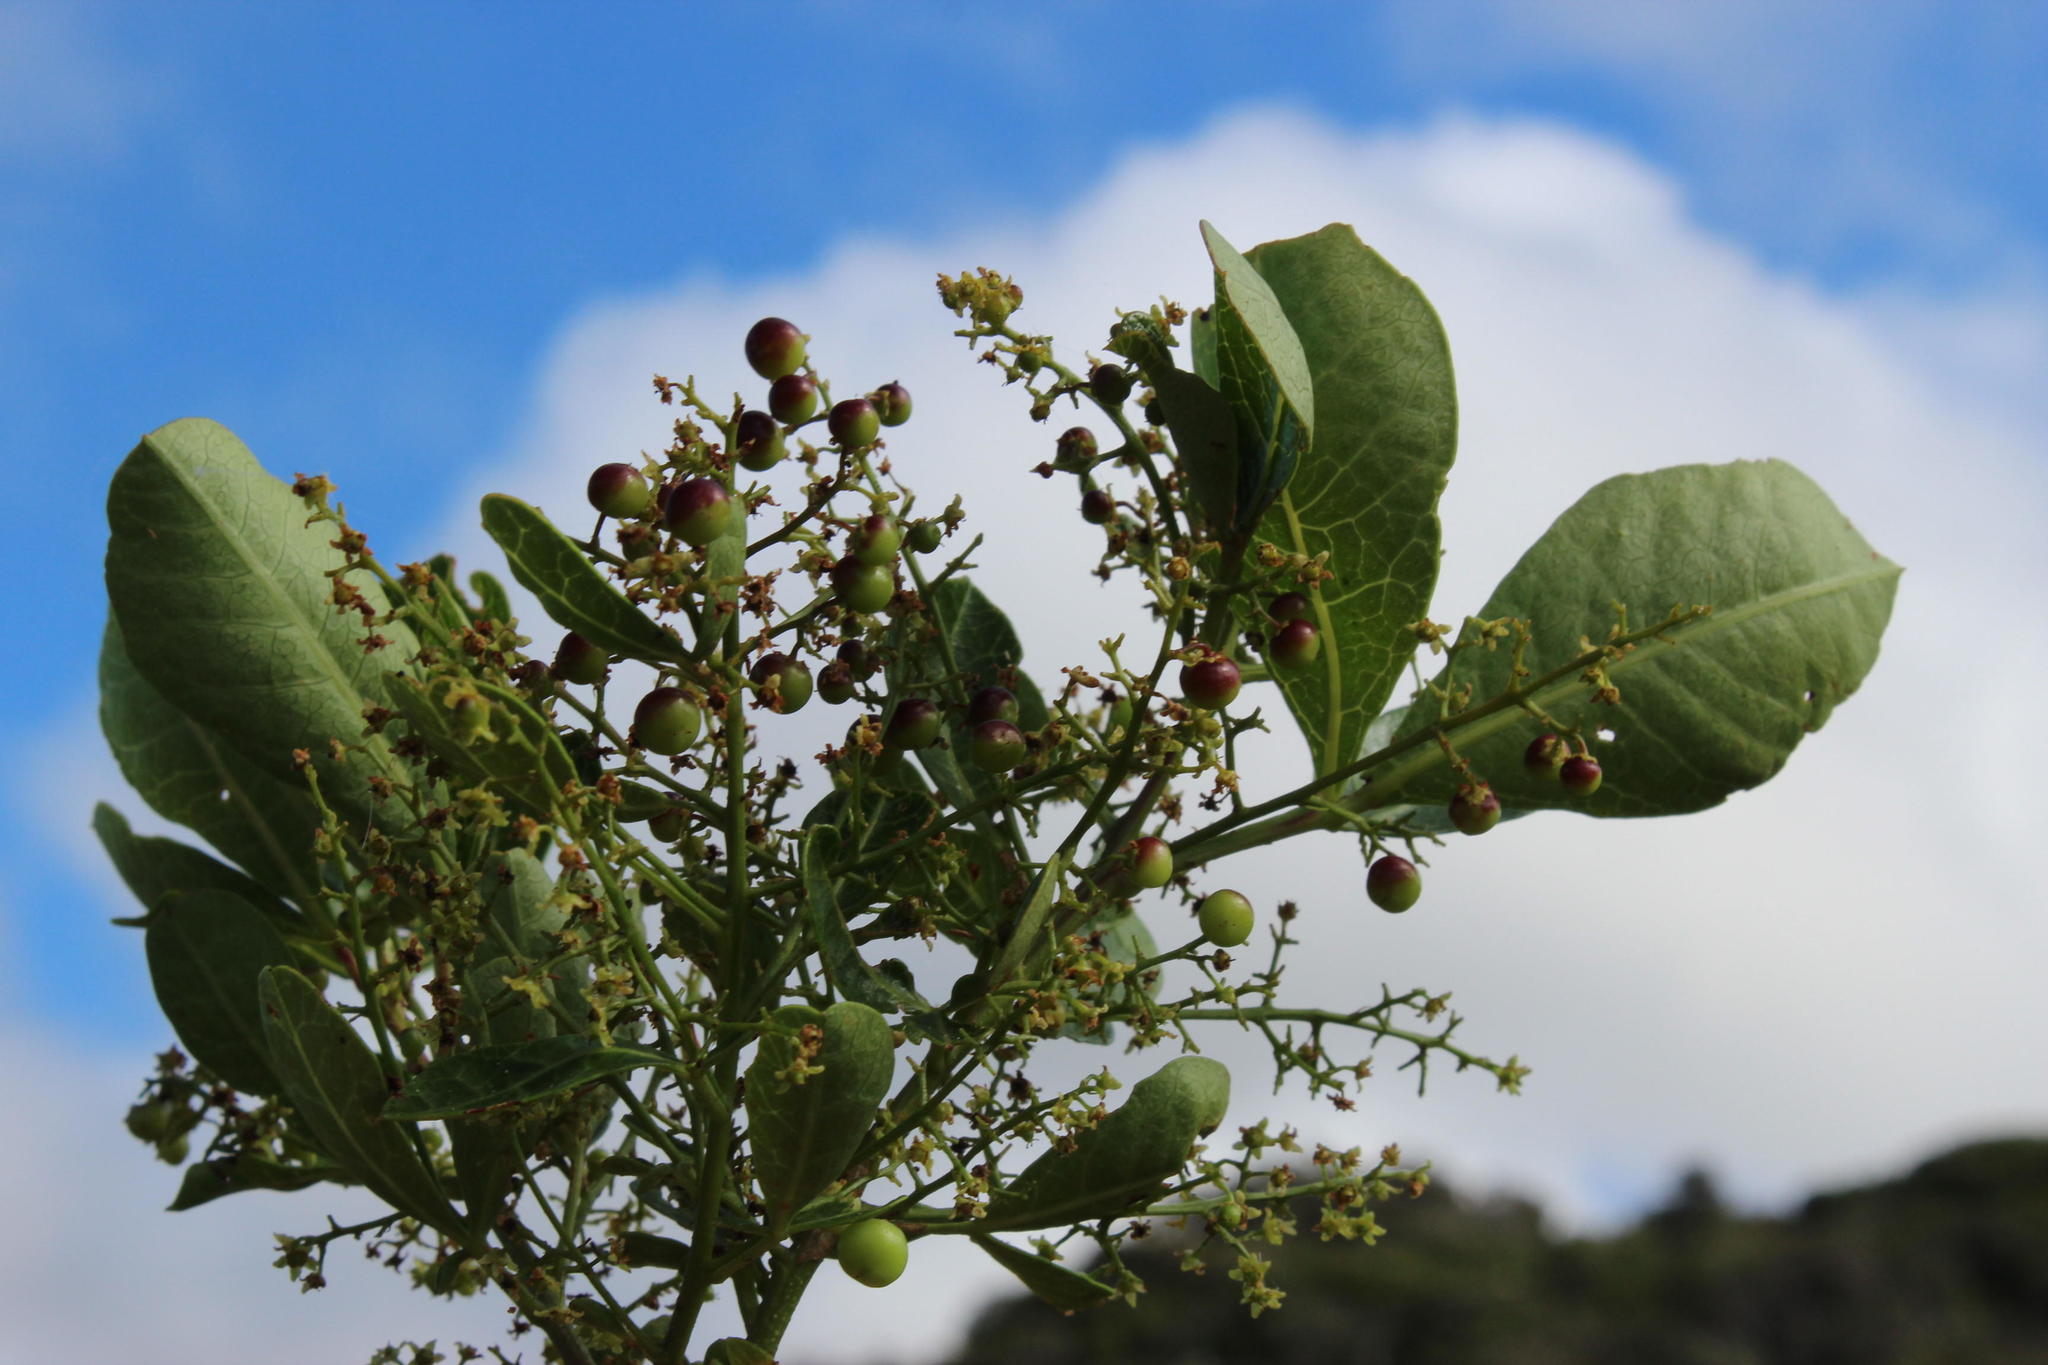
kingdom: Plantae
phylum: Tracheophyta
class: Magnoliopsida
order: Sapindales
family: Anacardiaceae
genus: Searsia
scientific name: Searsia laevigata
